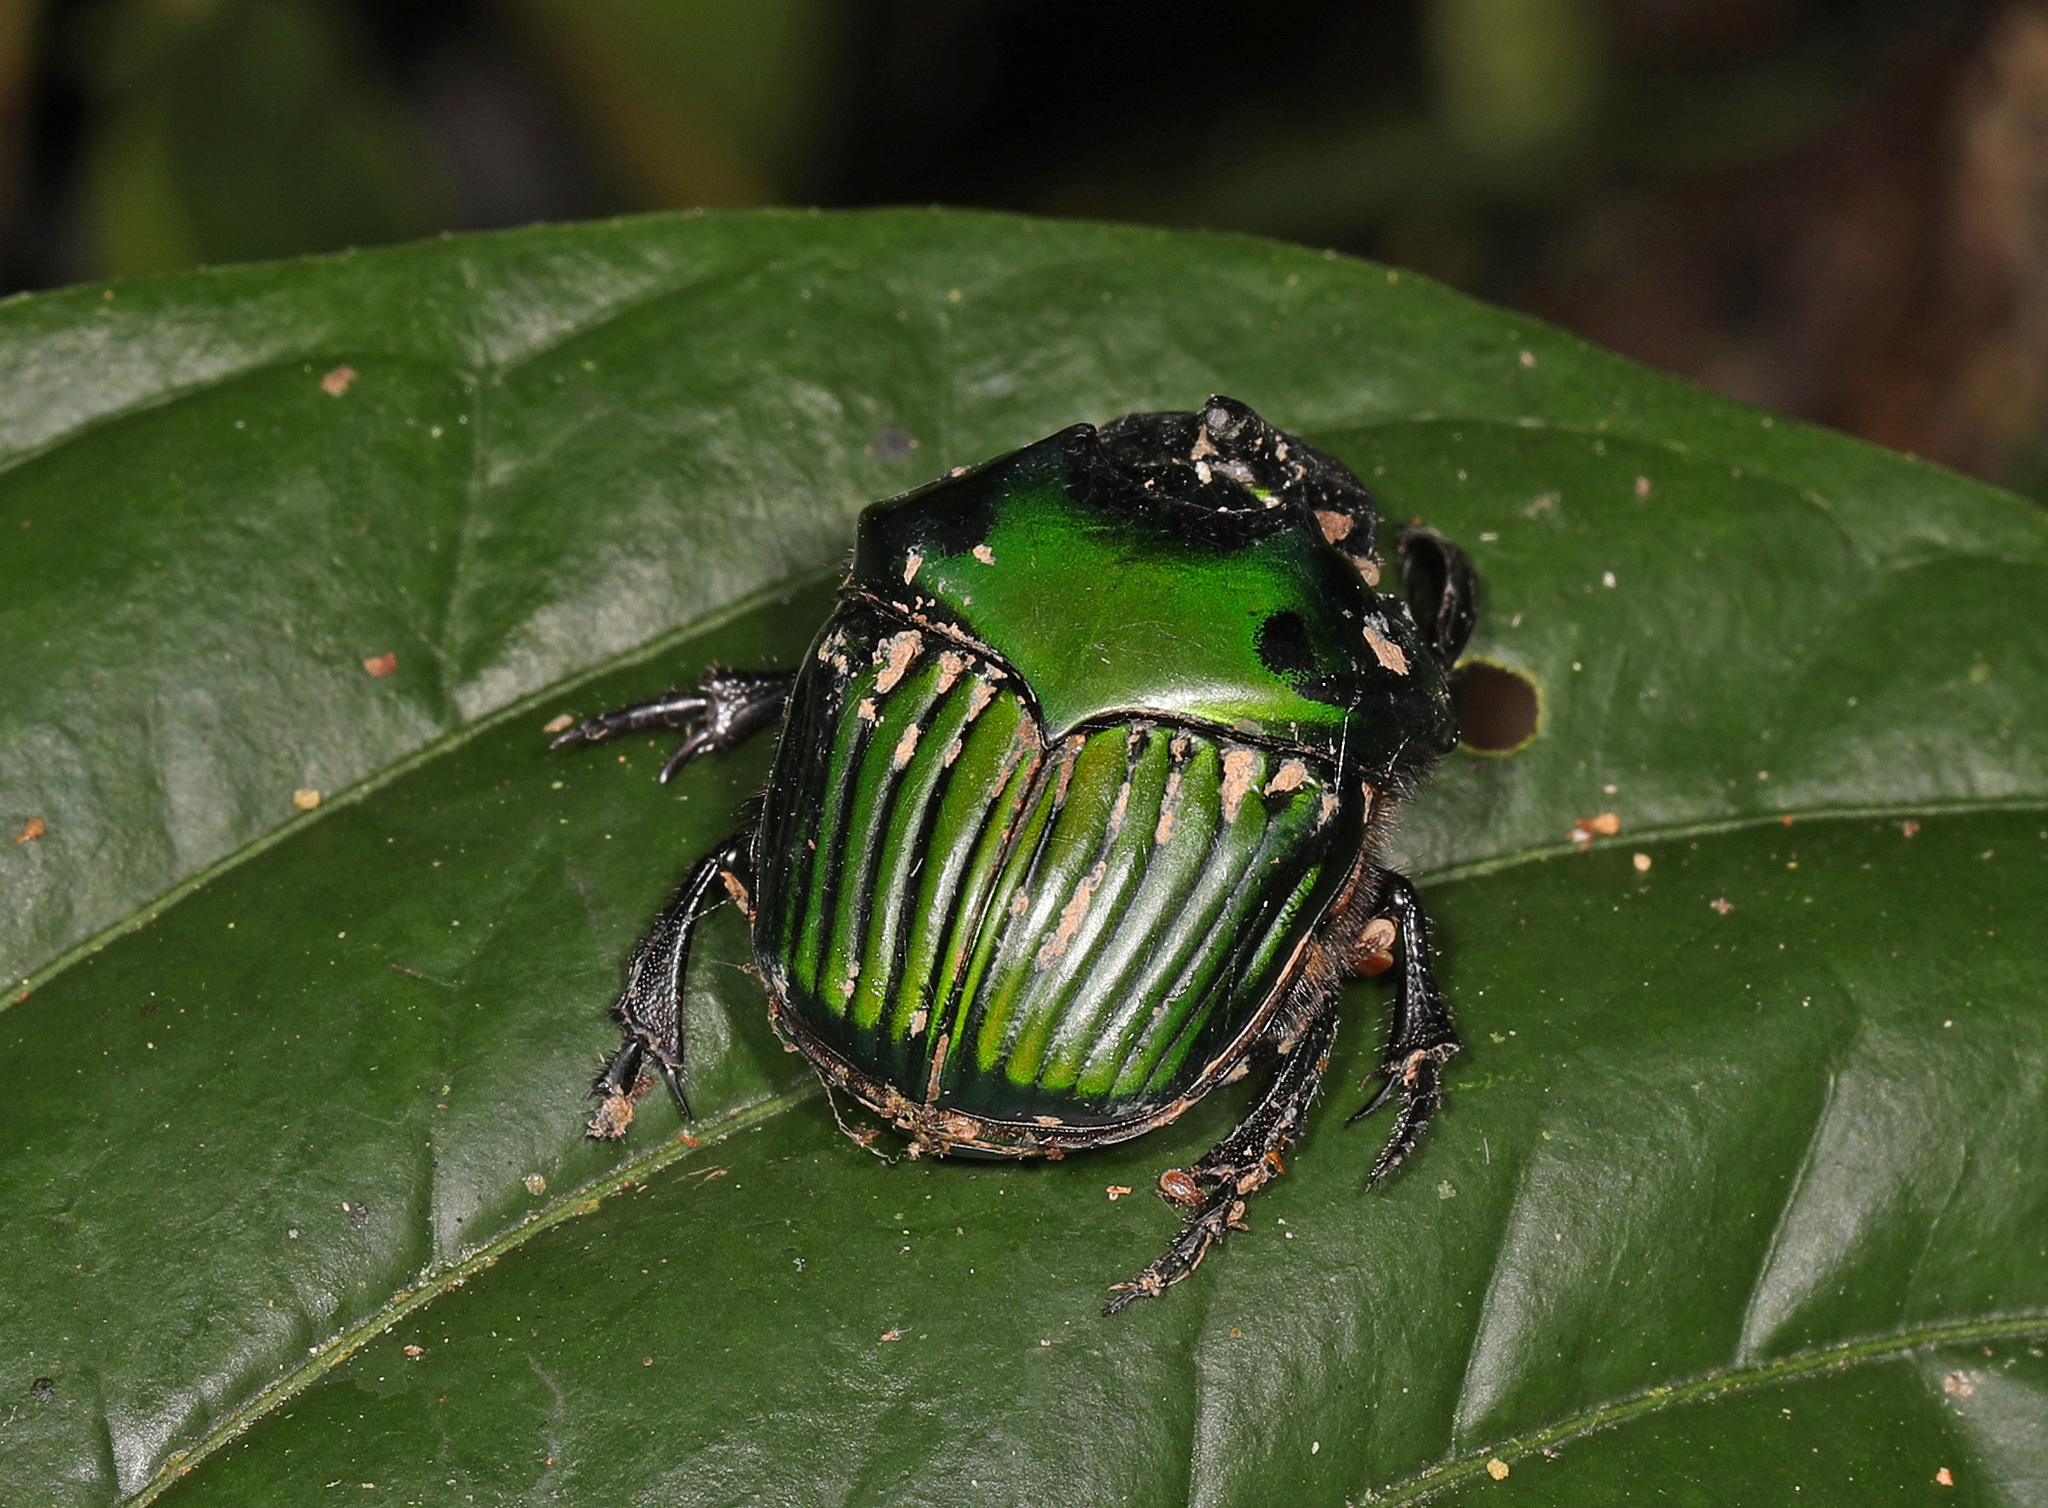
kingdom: Animalia
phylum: Arthropoda
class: Insecta
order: Coleoptera
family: Scarabaeidae
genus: Oxysternon
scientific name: Oxysternon conspicillatum
